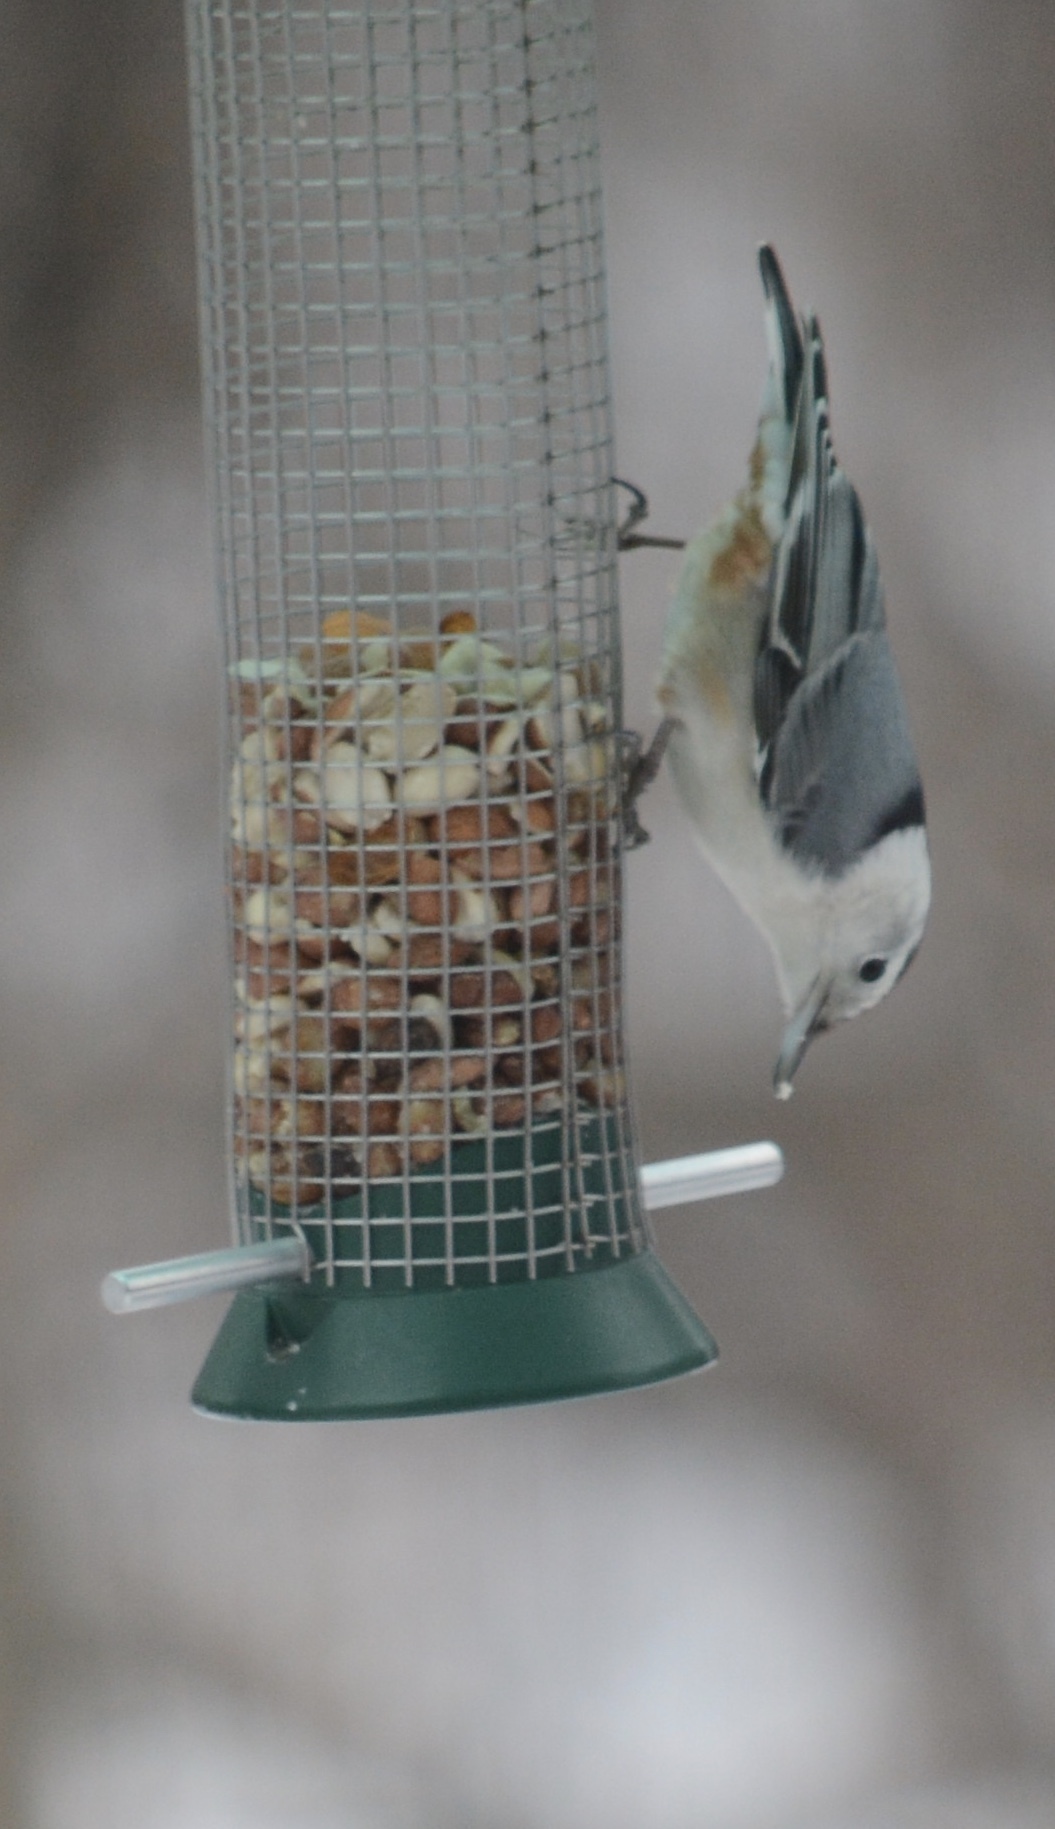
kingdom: Animalia
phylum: Chordata
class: Aves
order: Passeriformes
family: Sittidae
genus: Sitta
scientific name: Sitta carolinensis
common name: White-breasted nuthatch
